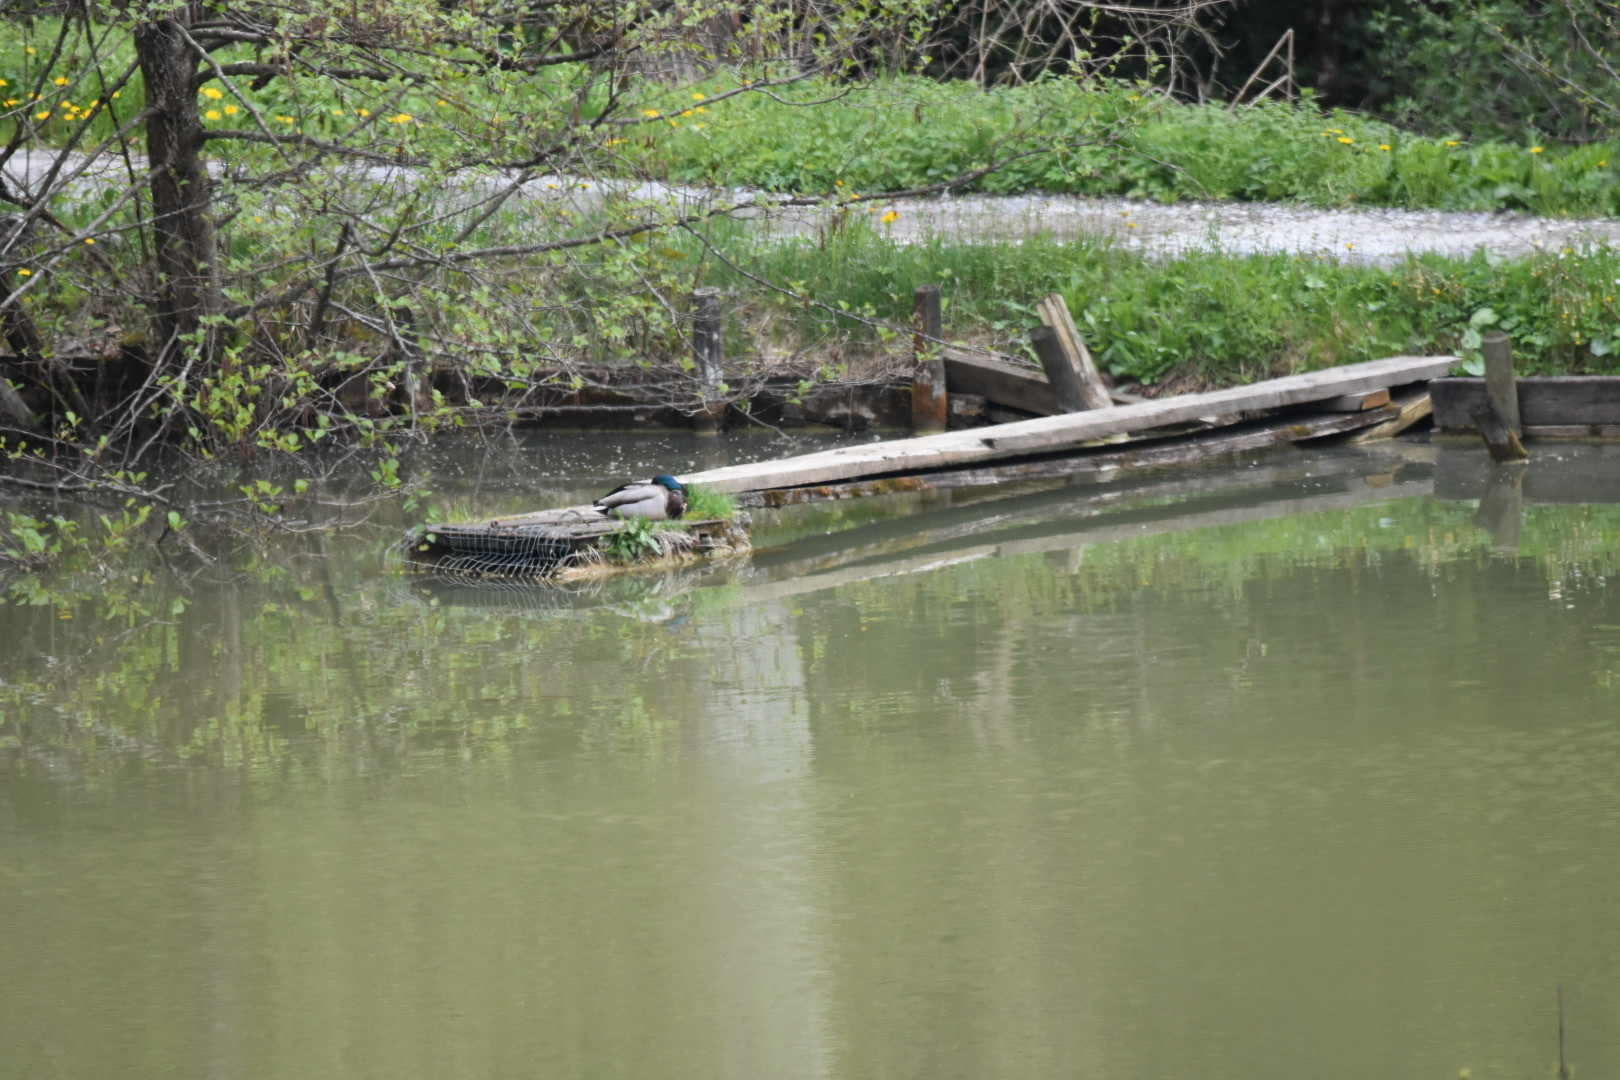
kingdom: Animalia
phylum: Chordata
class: Aves
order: Anseriformes
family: Anatidae
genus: Anas
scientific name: Anas platyrhynchos
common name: Mallard
